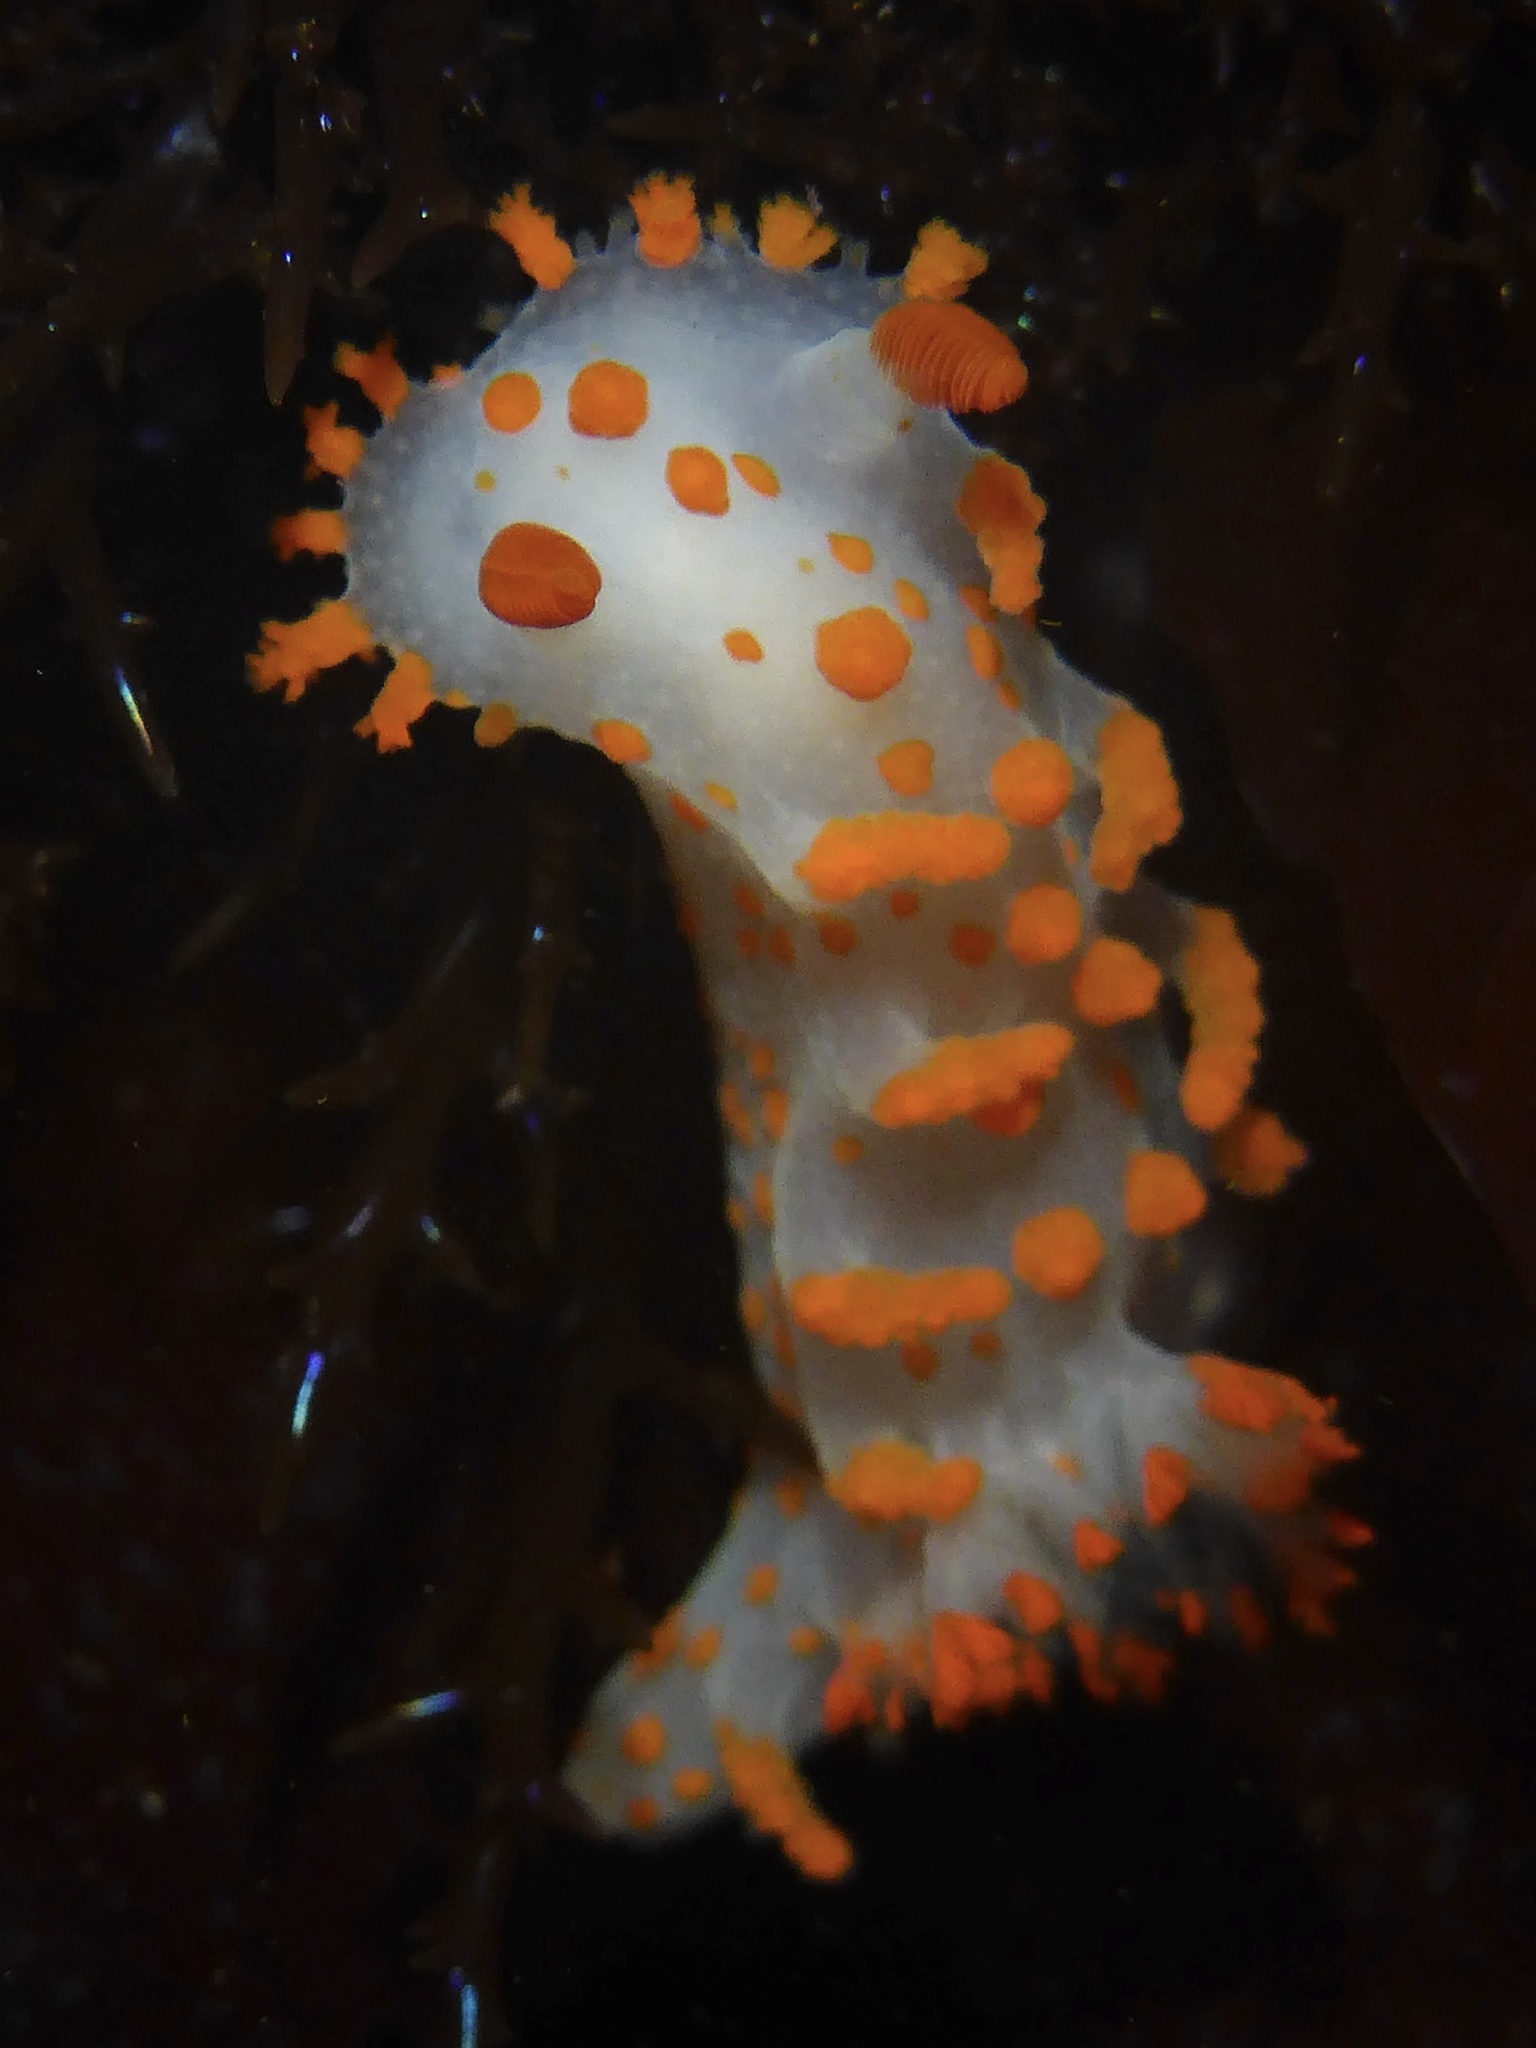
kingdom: Animalia
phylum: Mollusca
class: Gastropoda
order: Nudibranchia
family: Polyceridae
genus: Triopha
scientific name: Triopha catalinae
